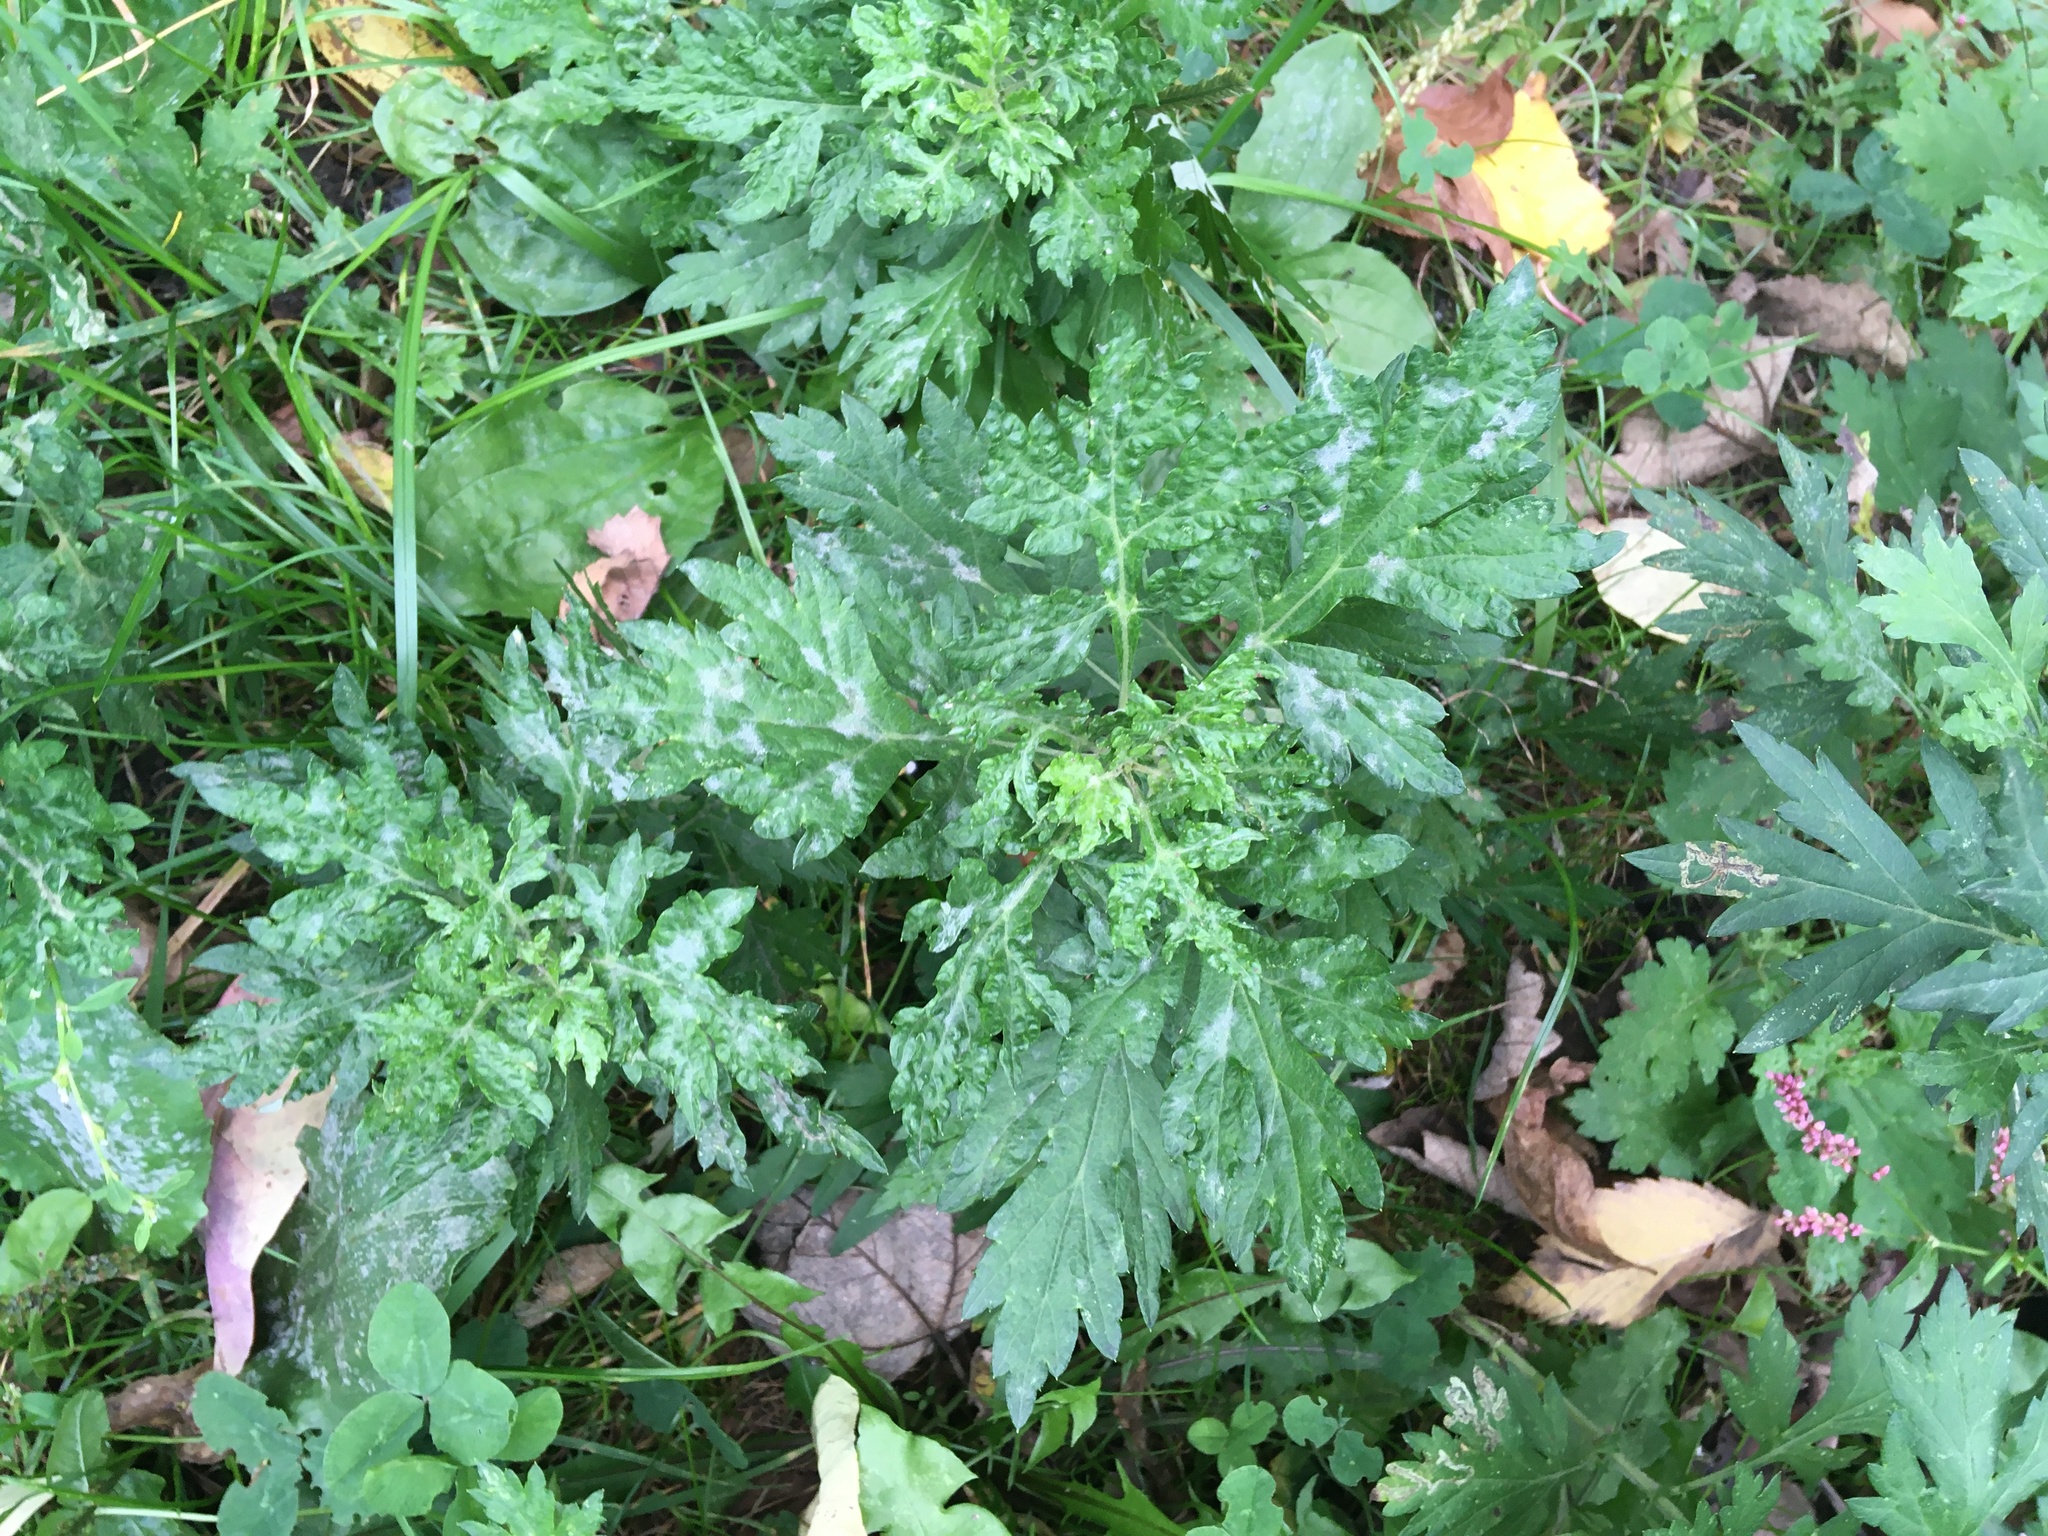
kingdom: Plantae
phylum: Tracheophyta
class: Magnoliopsida
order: Asterales
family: Asteraceae
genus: Artemisia
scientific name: Artemisia vulgaris
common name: Mugwort
